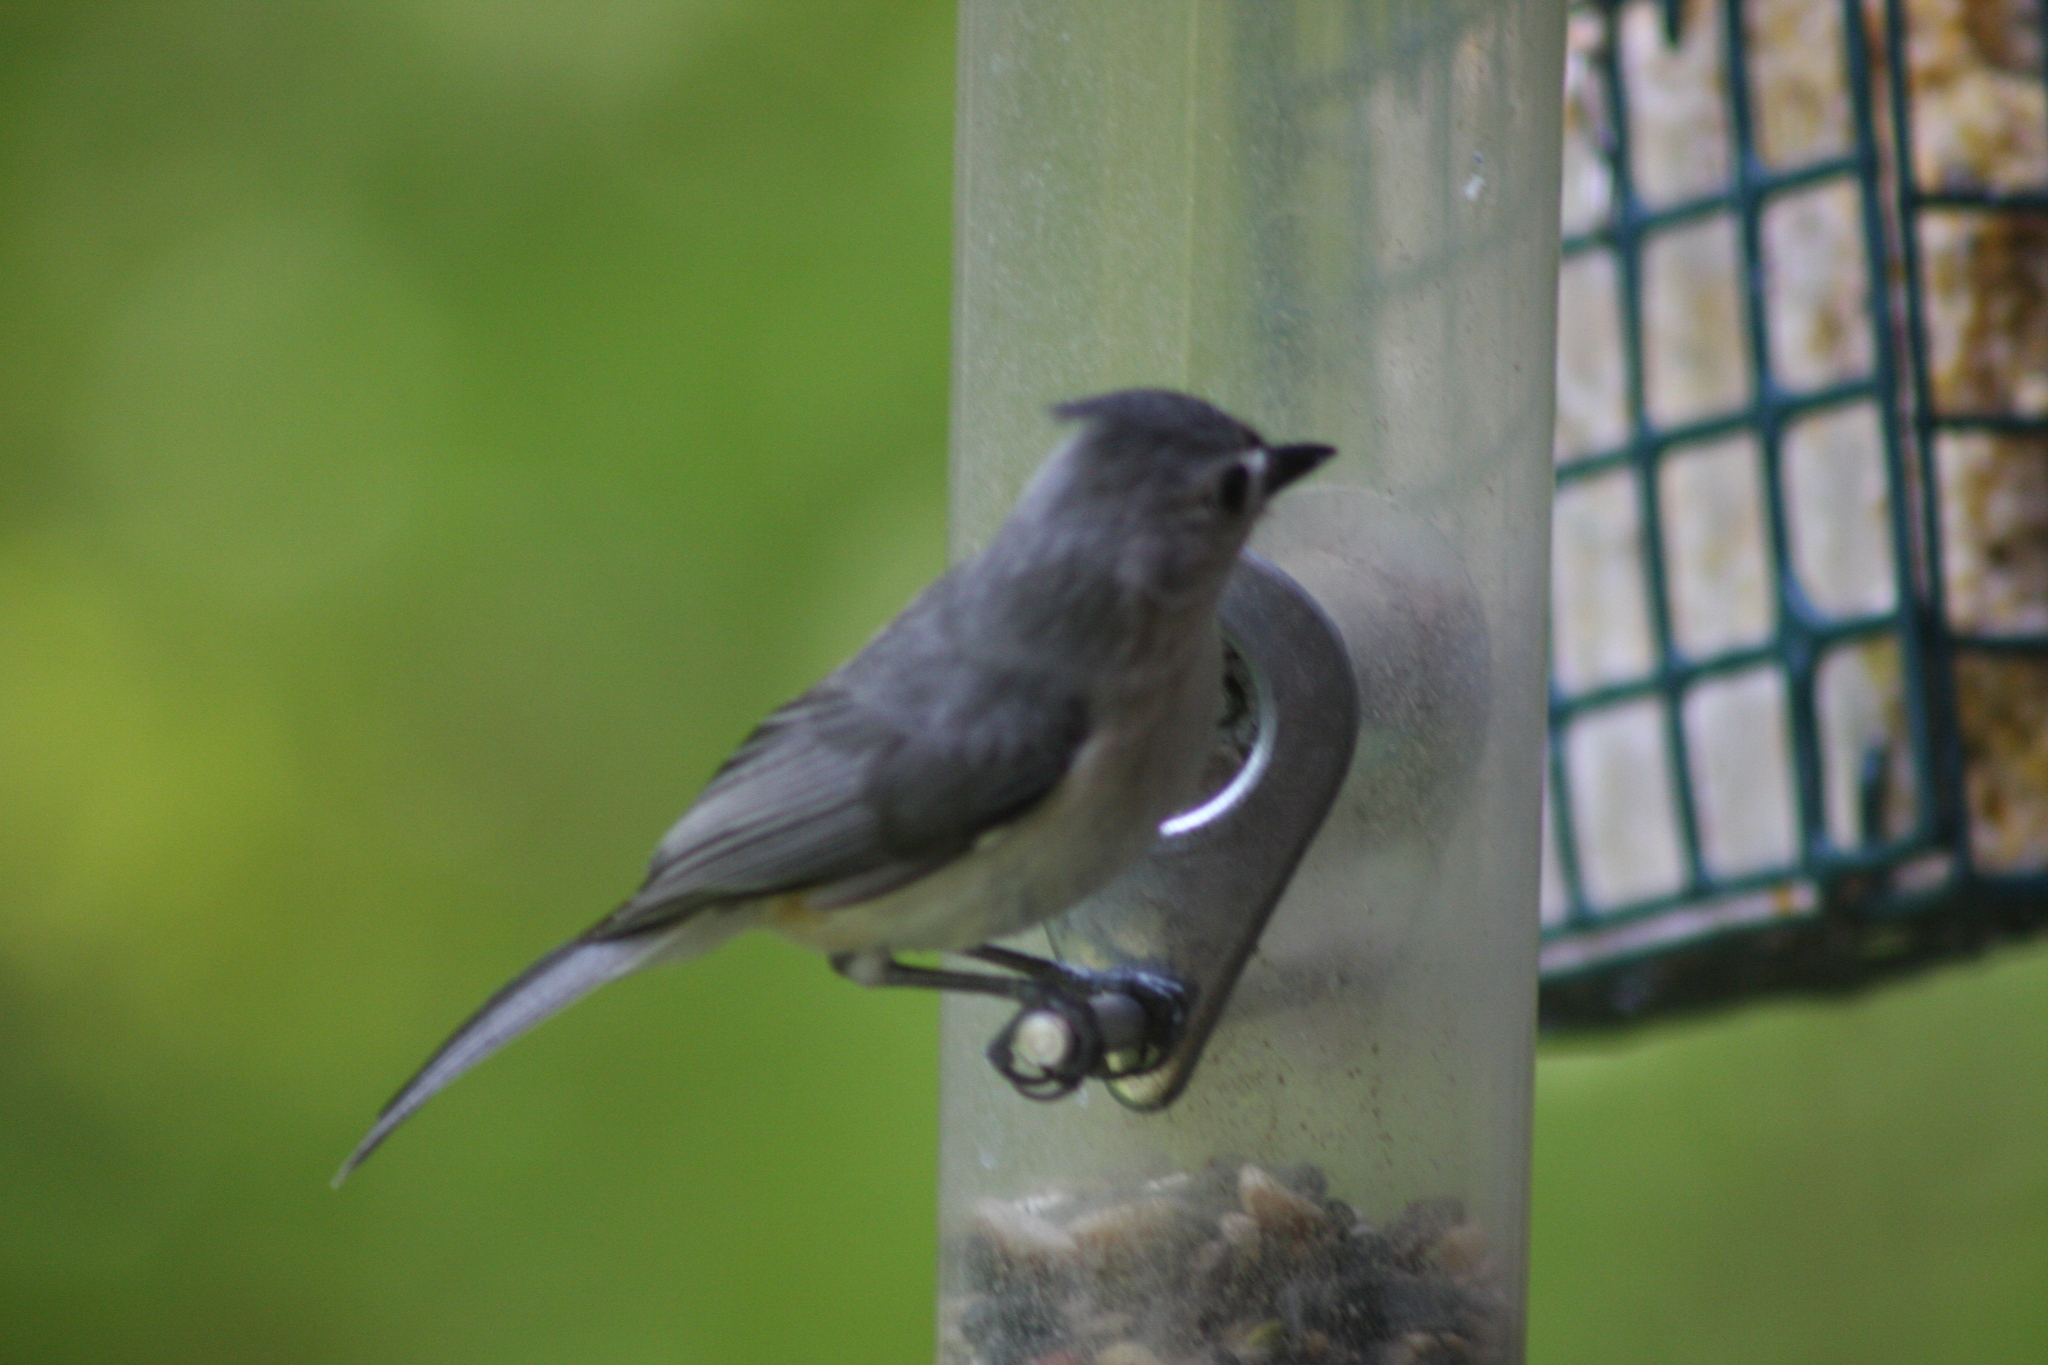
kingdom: Animalia
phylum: Chordata
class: Aves
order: Passeriformes
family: Paridae
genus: Baeolophus
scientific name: Baeolophus bicolor
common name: Tufted titmouse
